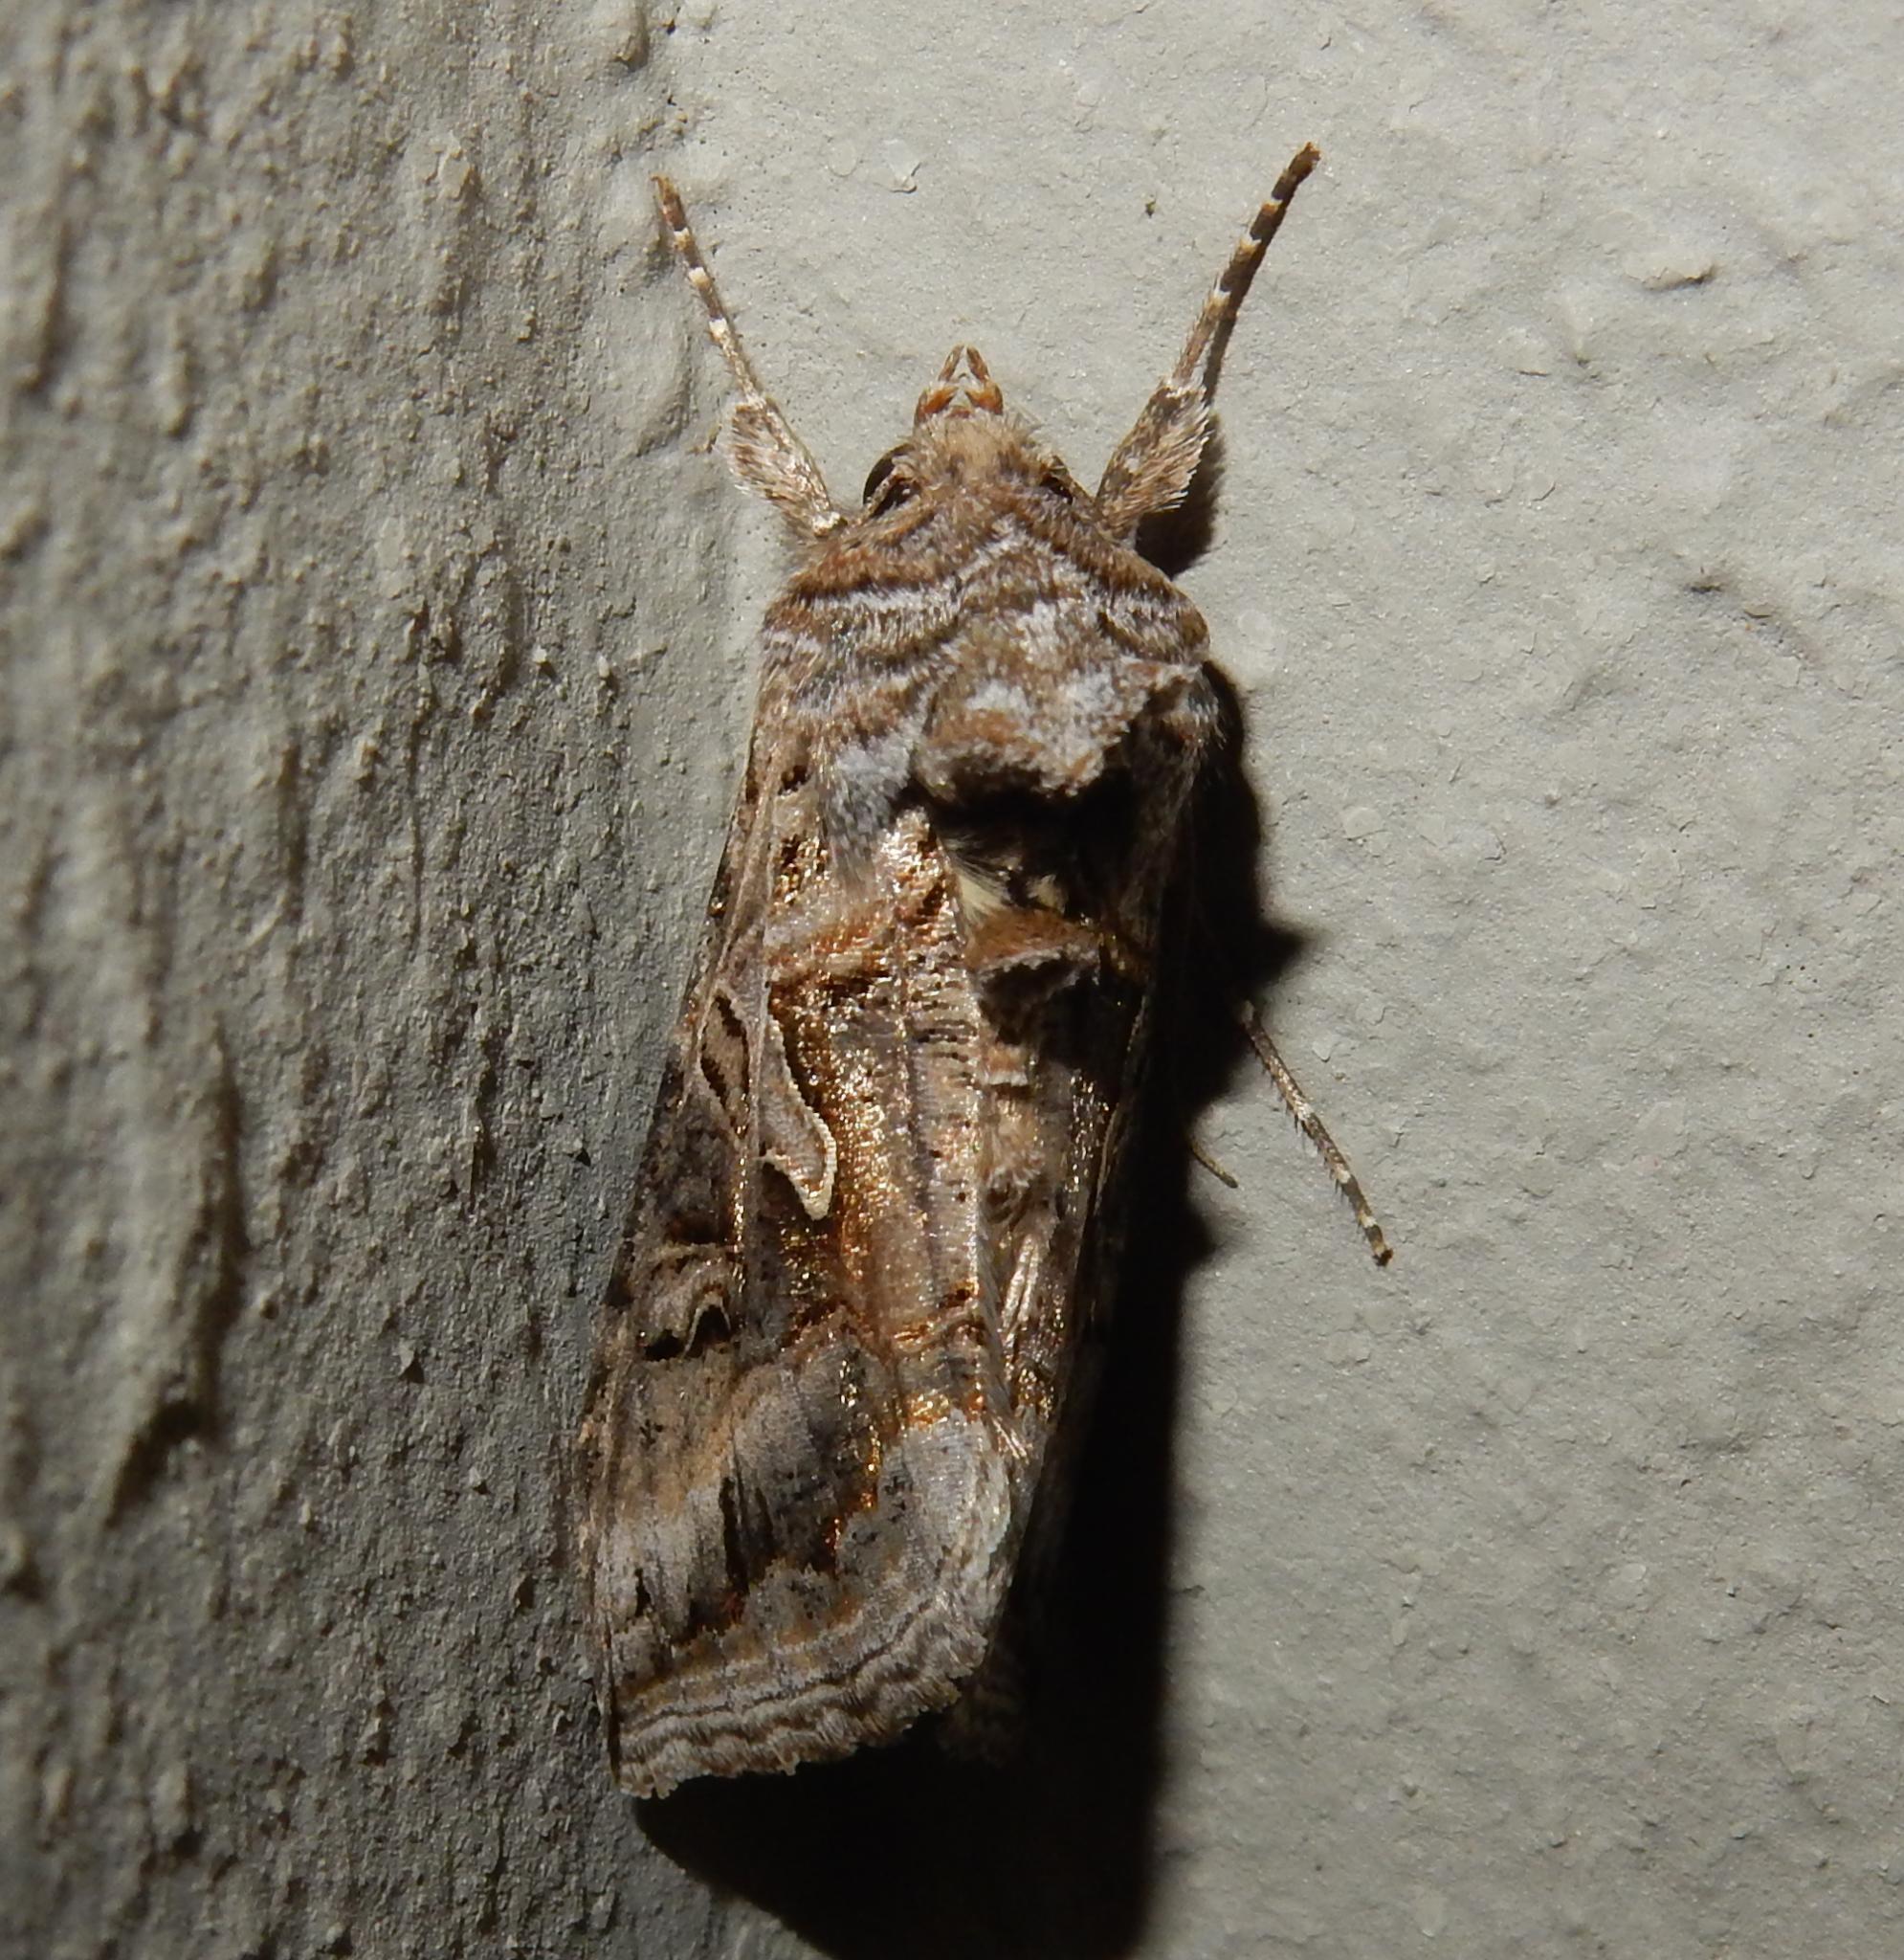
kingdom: Animalia
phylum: Arthropoda
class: Insecta
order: Lepidoptera
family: Noctuidae
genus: Cornutiplusia
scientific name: Cornutiplusia circumflexa
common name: Yorkshire y
